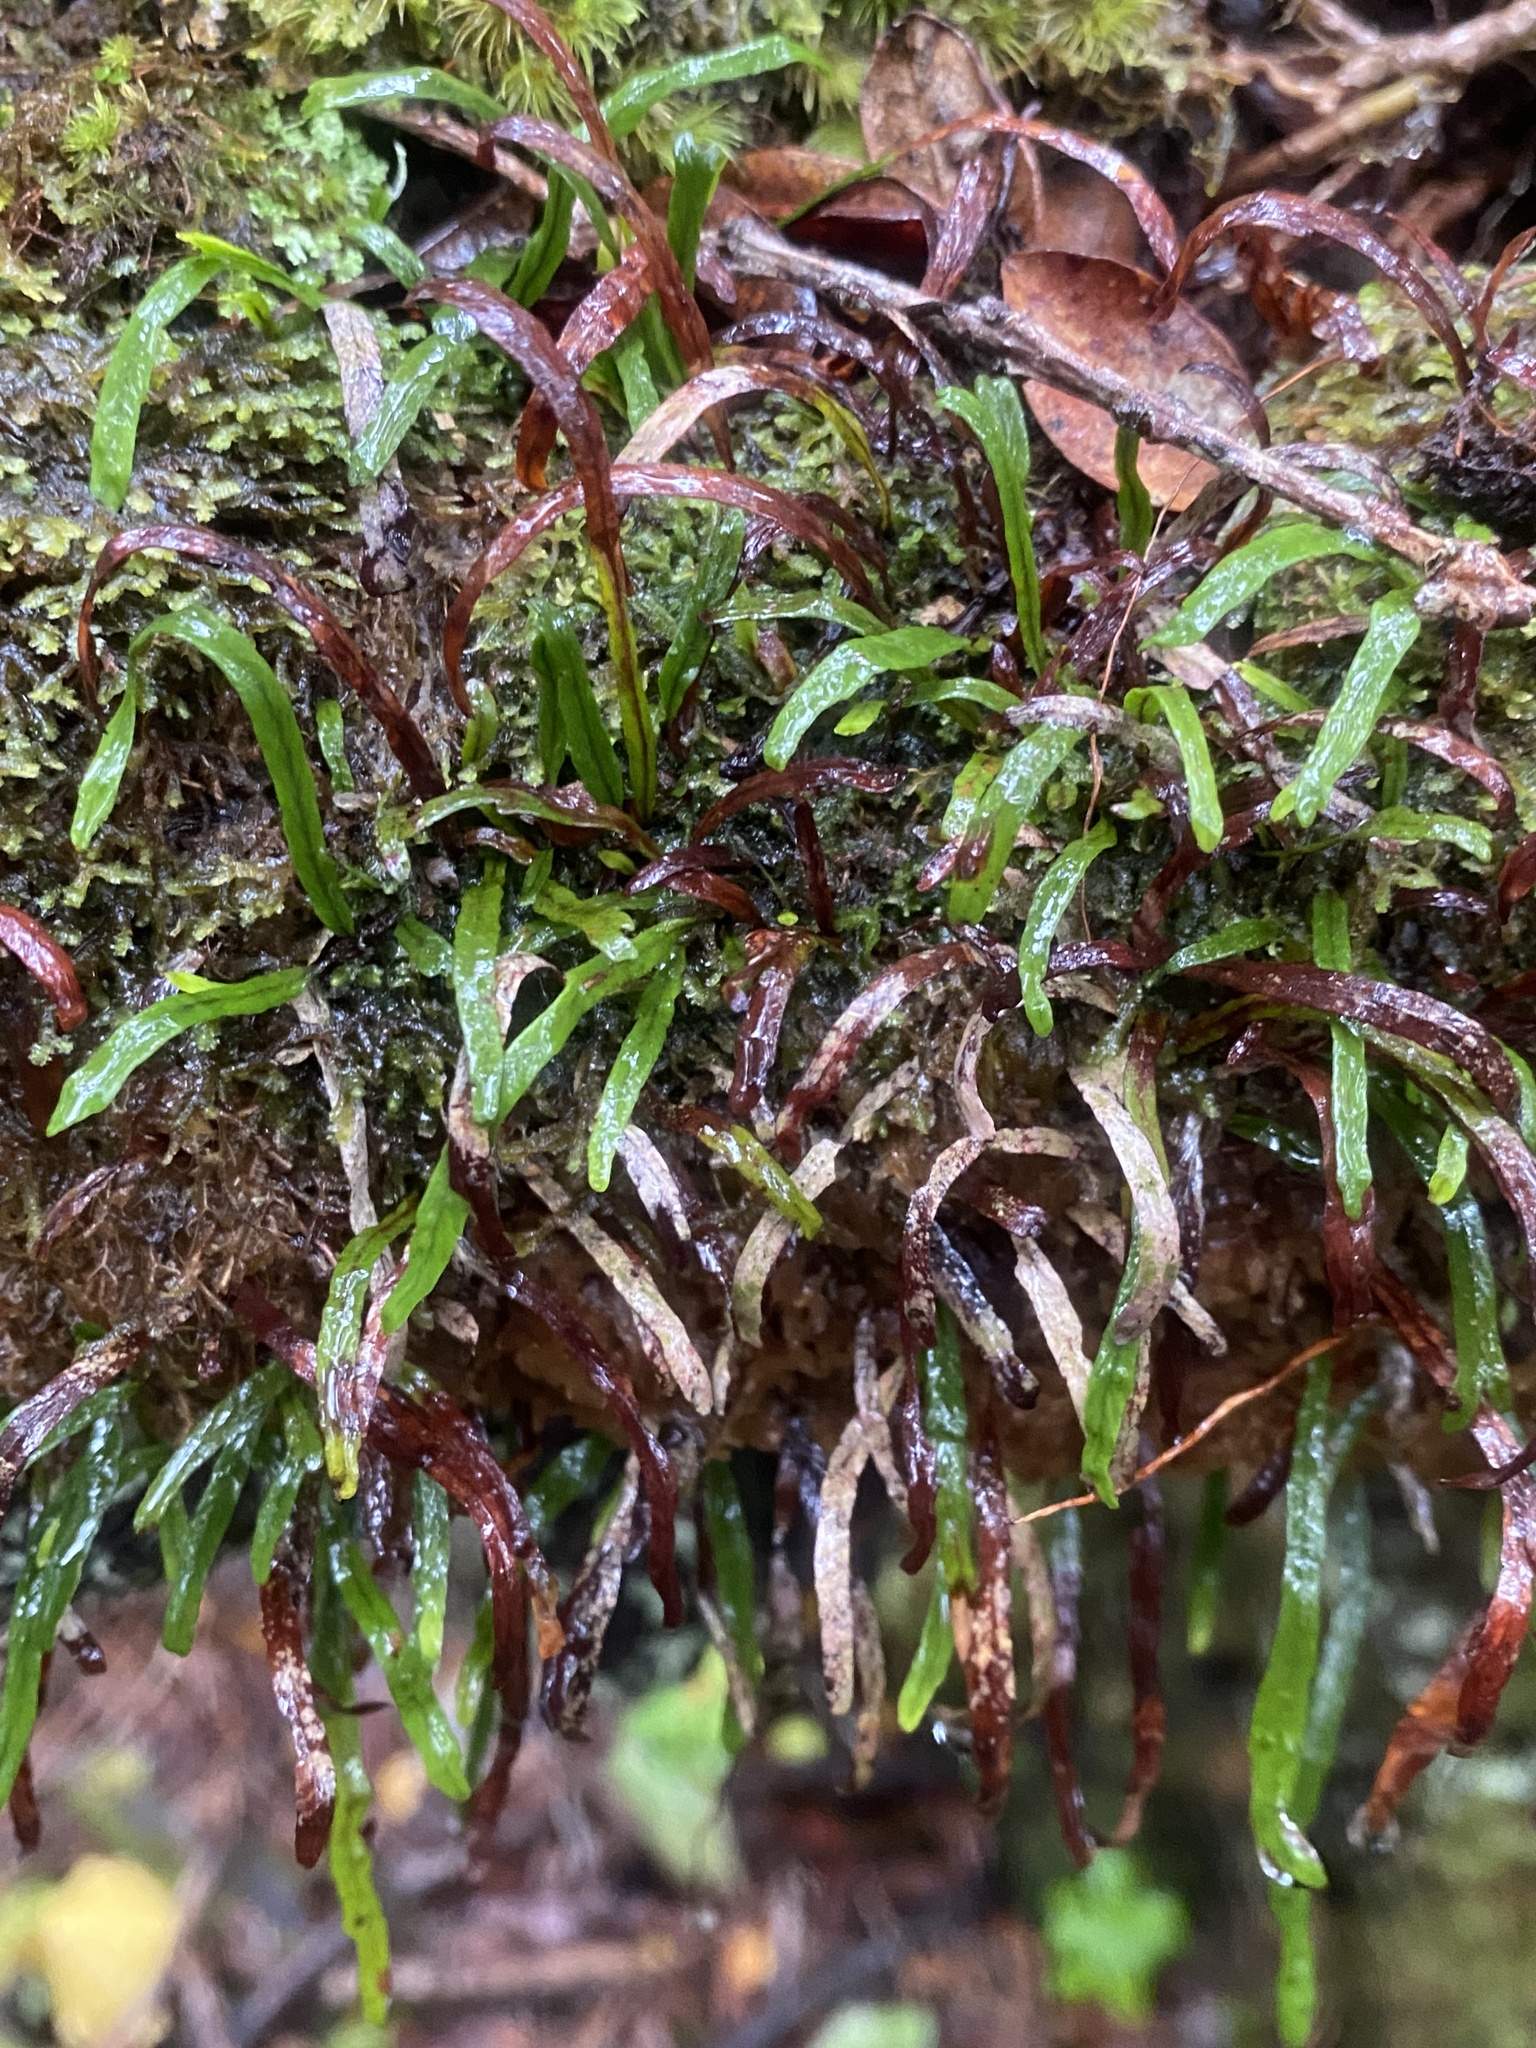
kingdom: Plantae
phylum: Tracheophyta
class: Polypodiopsida
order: Polypodiales
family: Polypodiaceae
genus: Adenophorus
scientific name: Adenophorus tenellus
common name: Kolokolo
